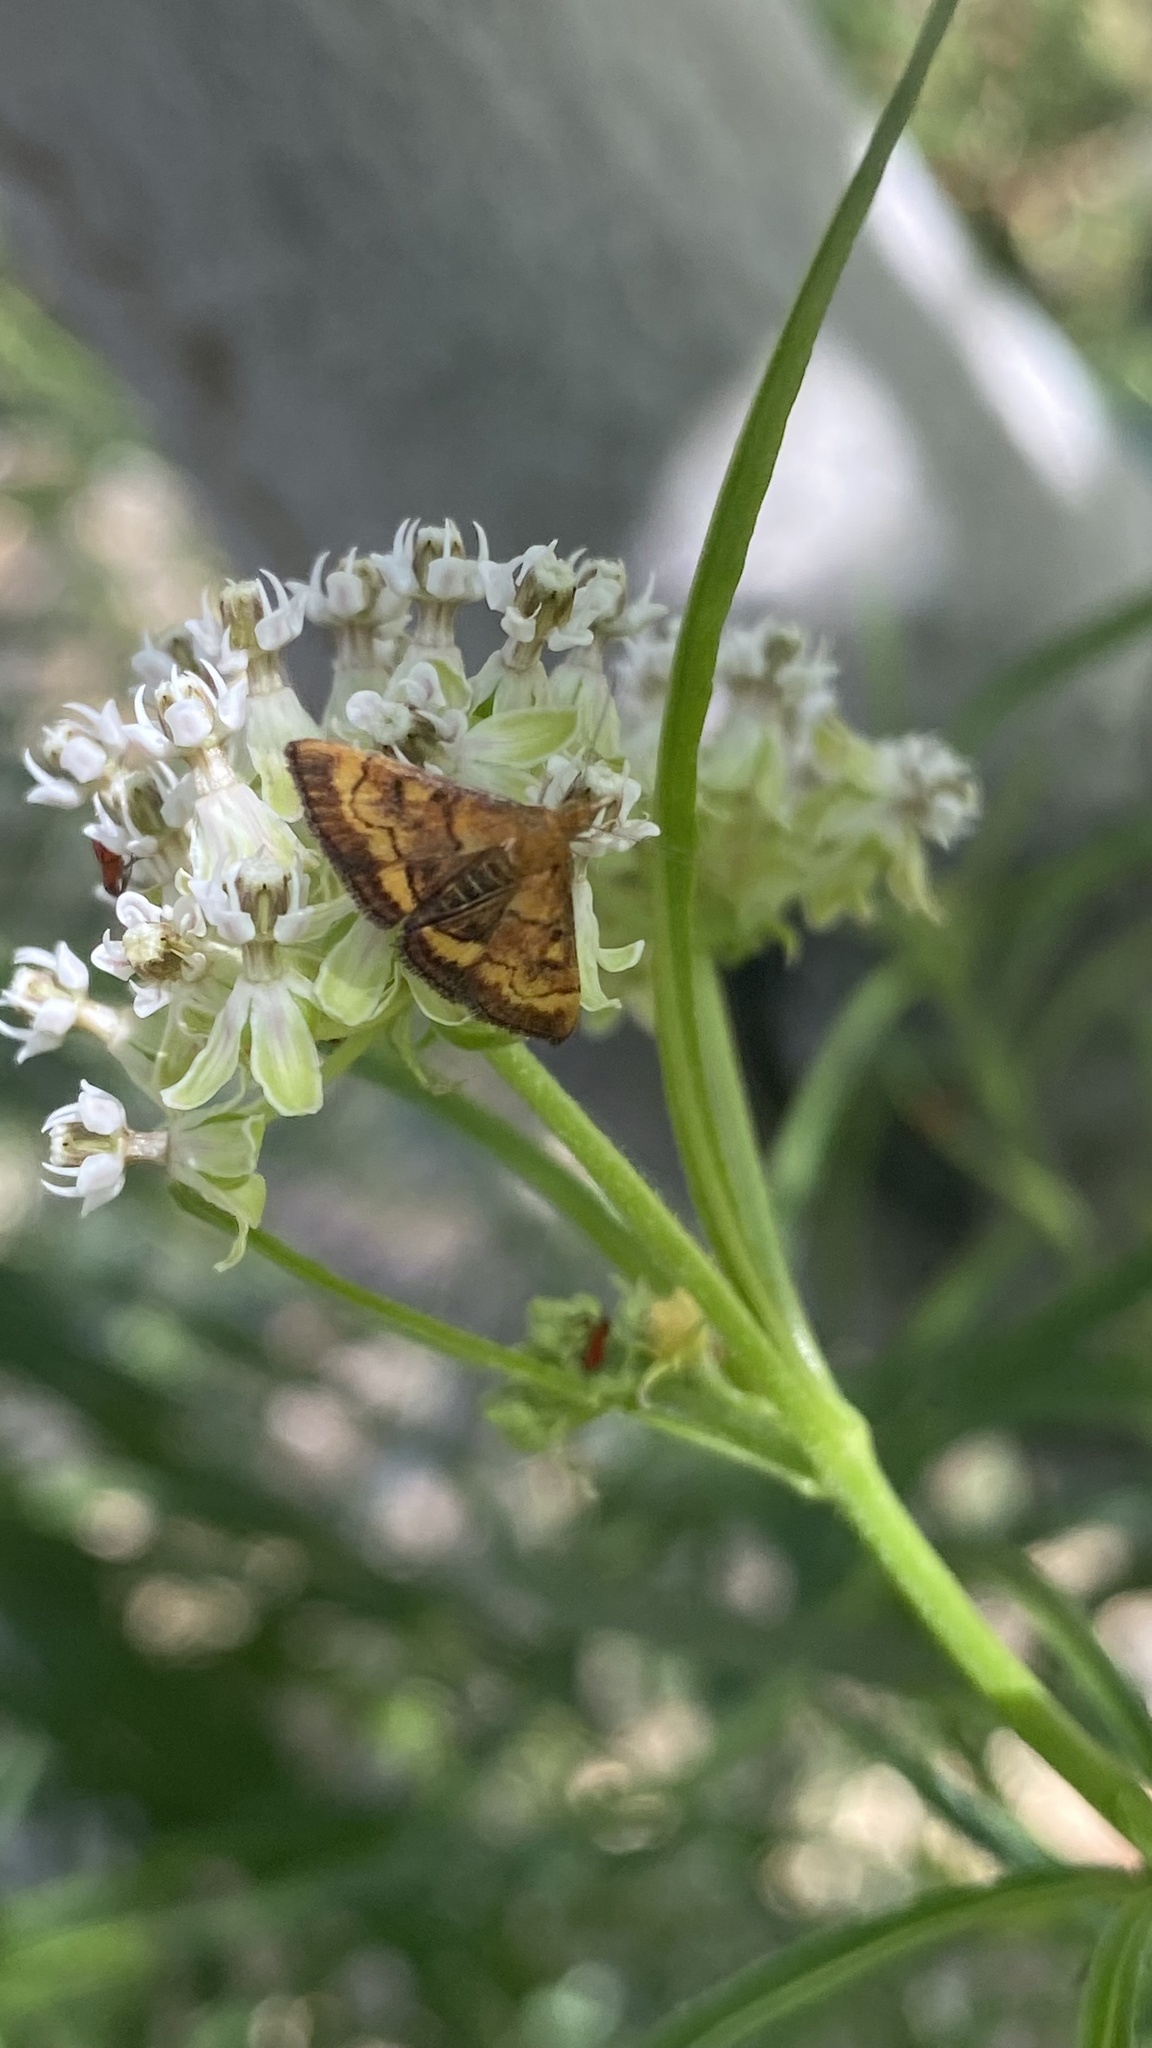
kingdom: Animalia
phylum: Arthropoda
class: Insecta
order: Lepidoptera
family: Crambidae
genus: Pyrausta
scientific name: Pyrausta californicalis
